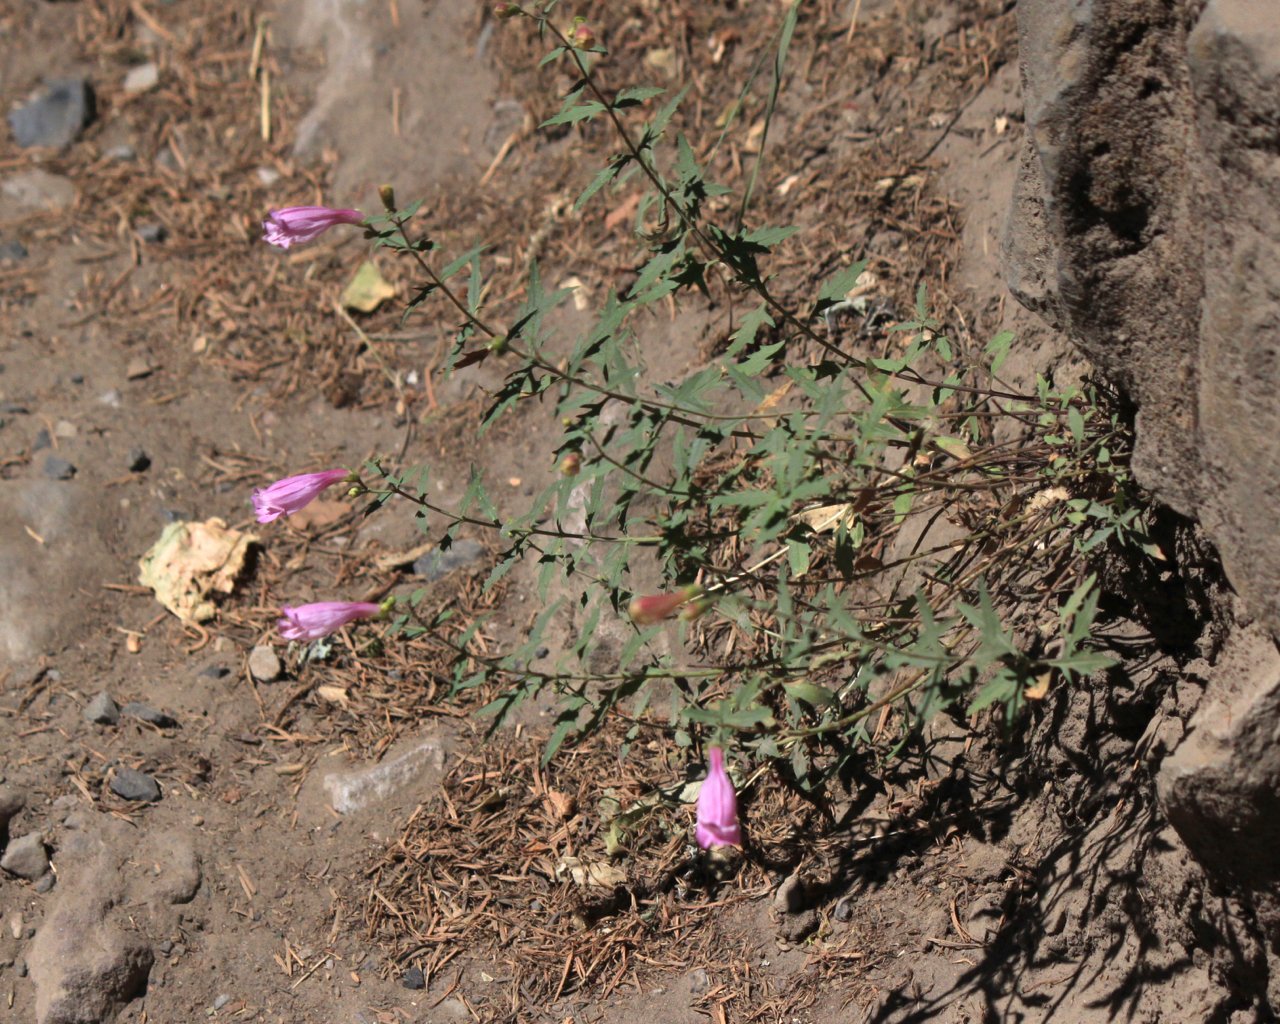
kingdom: Plantae
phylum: Tracheophyta
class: Magnoliopsida
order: Lamiales
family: Plantaginaceae
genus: Penstemon
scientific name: Penstemon richardsonii
